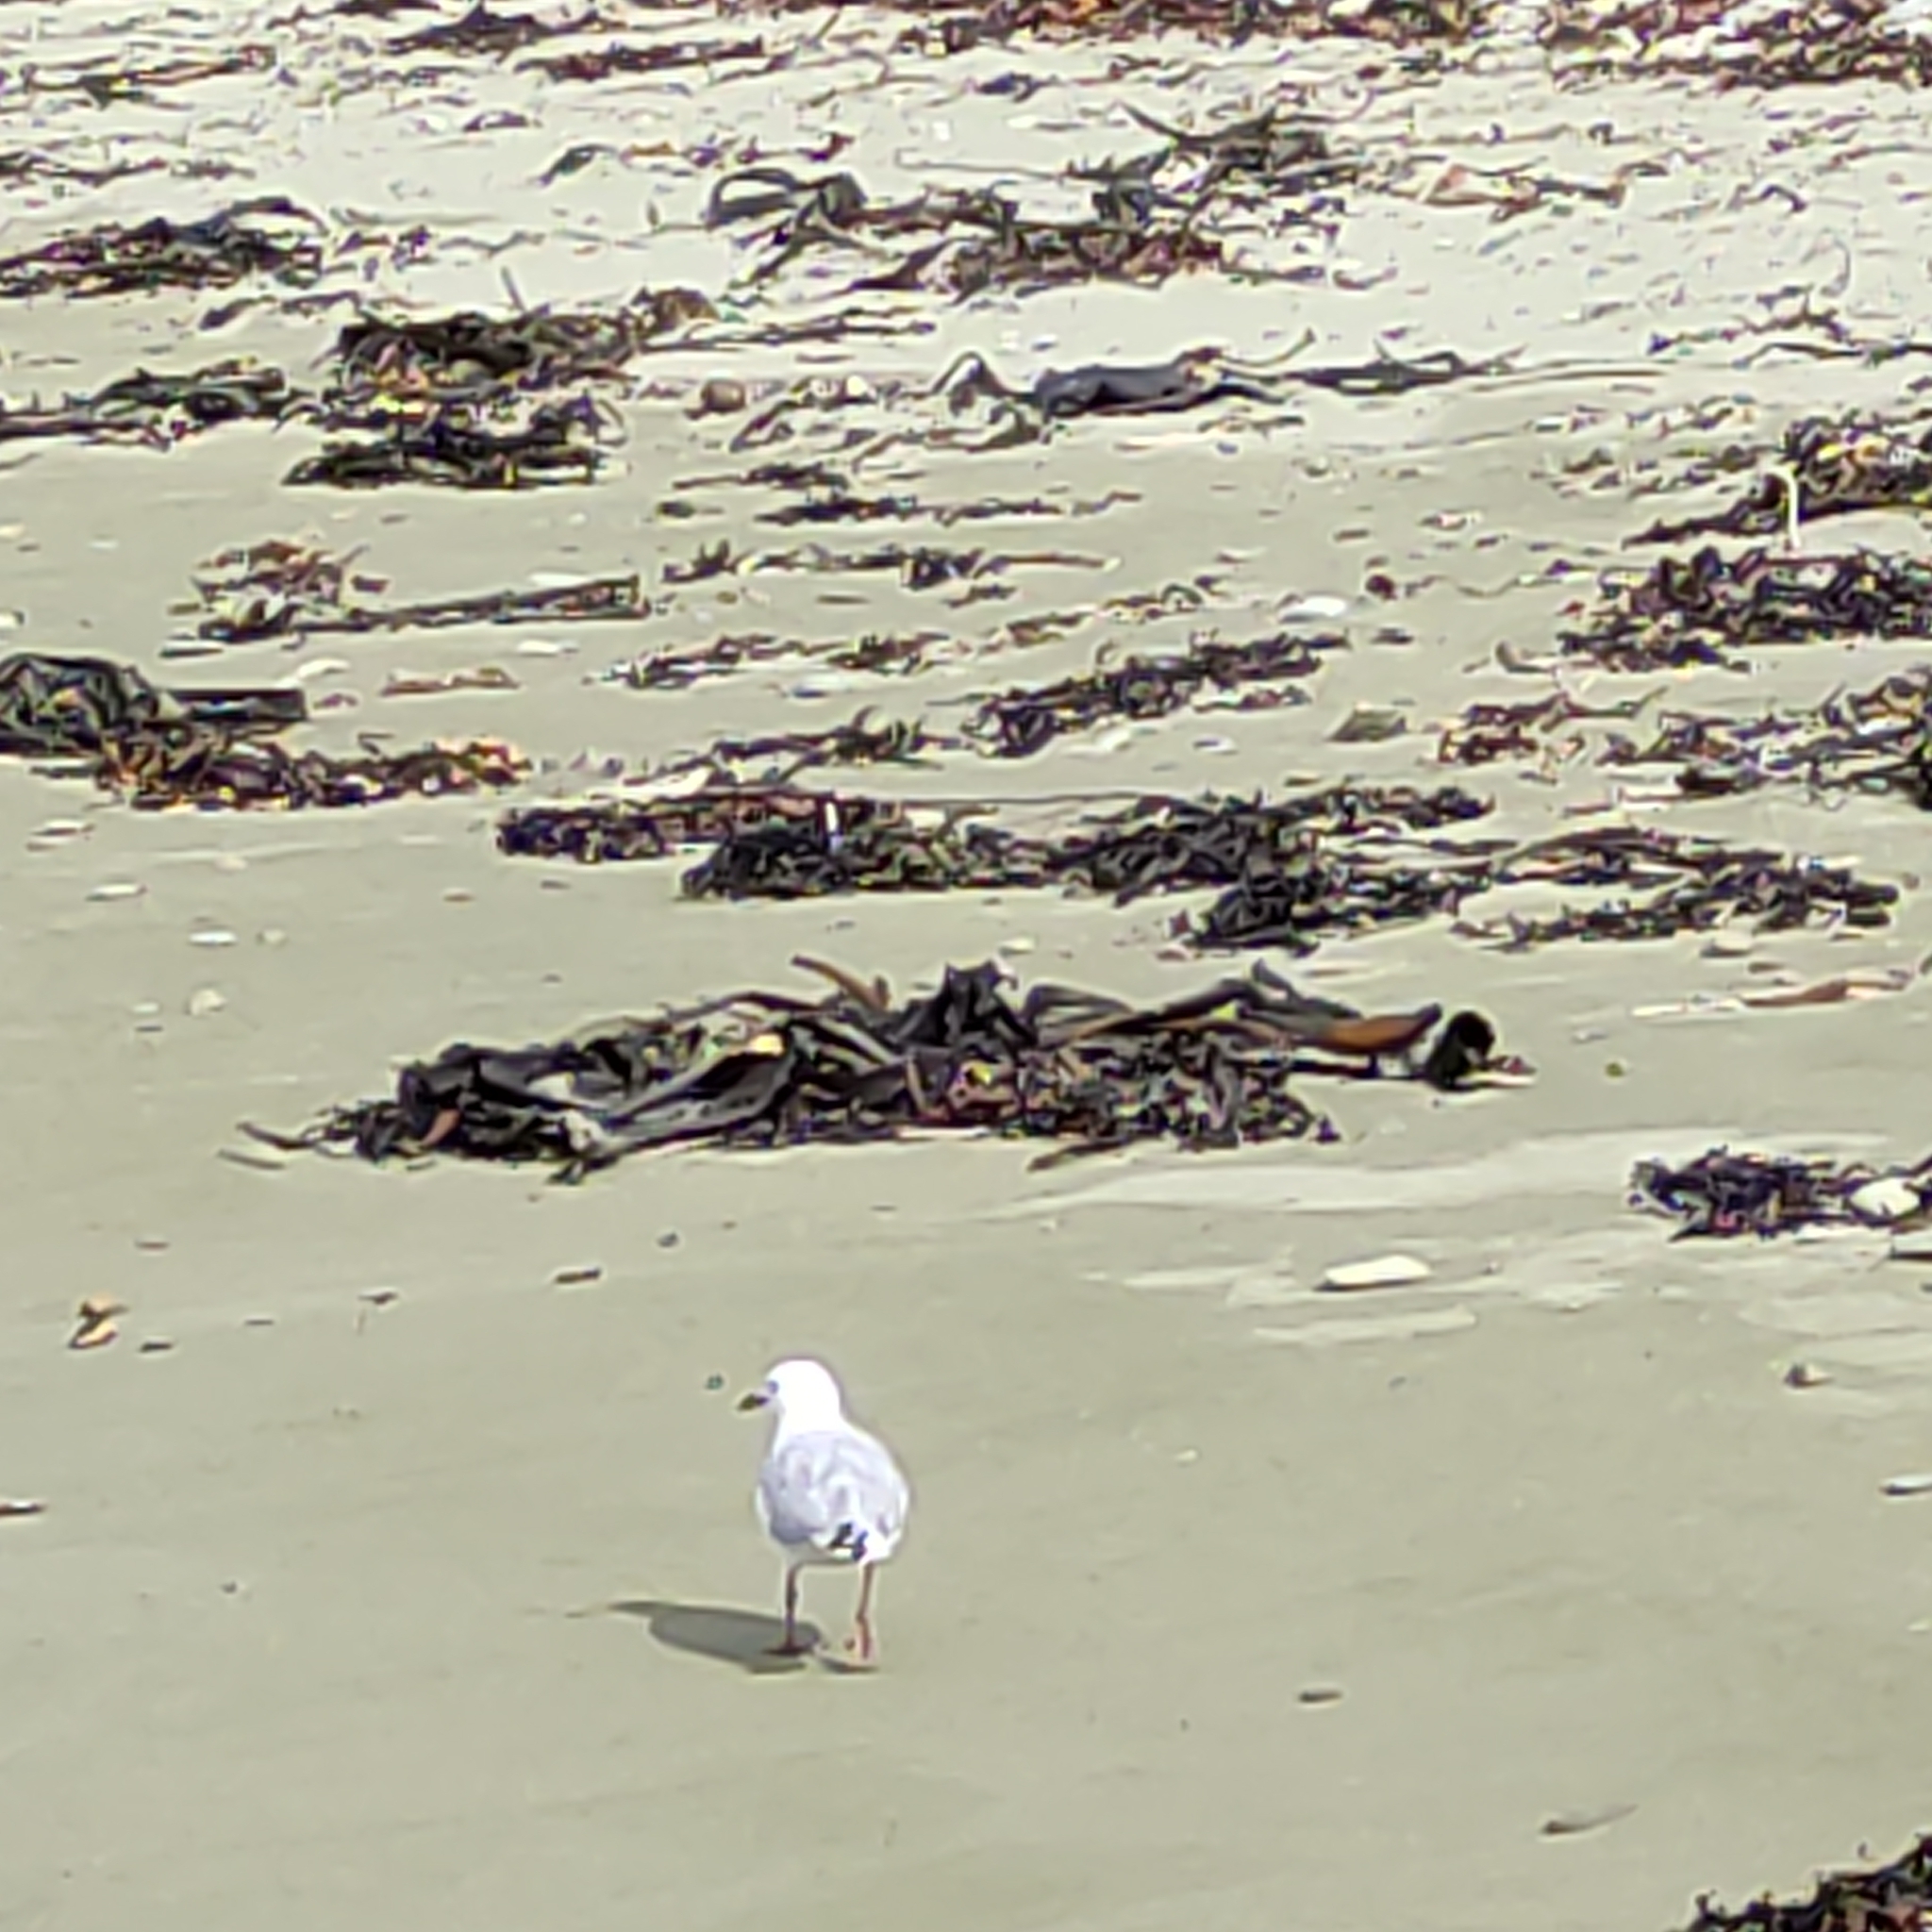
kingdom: Animalia
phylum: Chordata
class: Aves
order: Charadriiformes
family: Laridae
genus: Chroicocephalus
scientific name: Chroicocephalus novaehollandiae
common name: Silver gull
